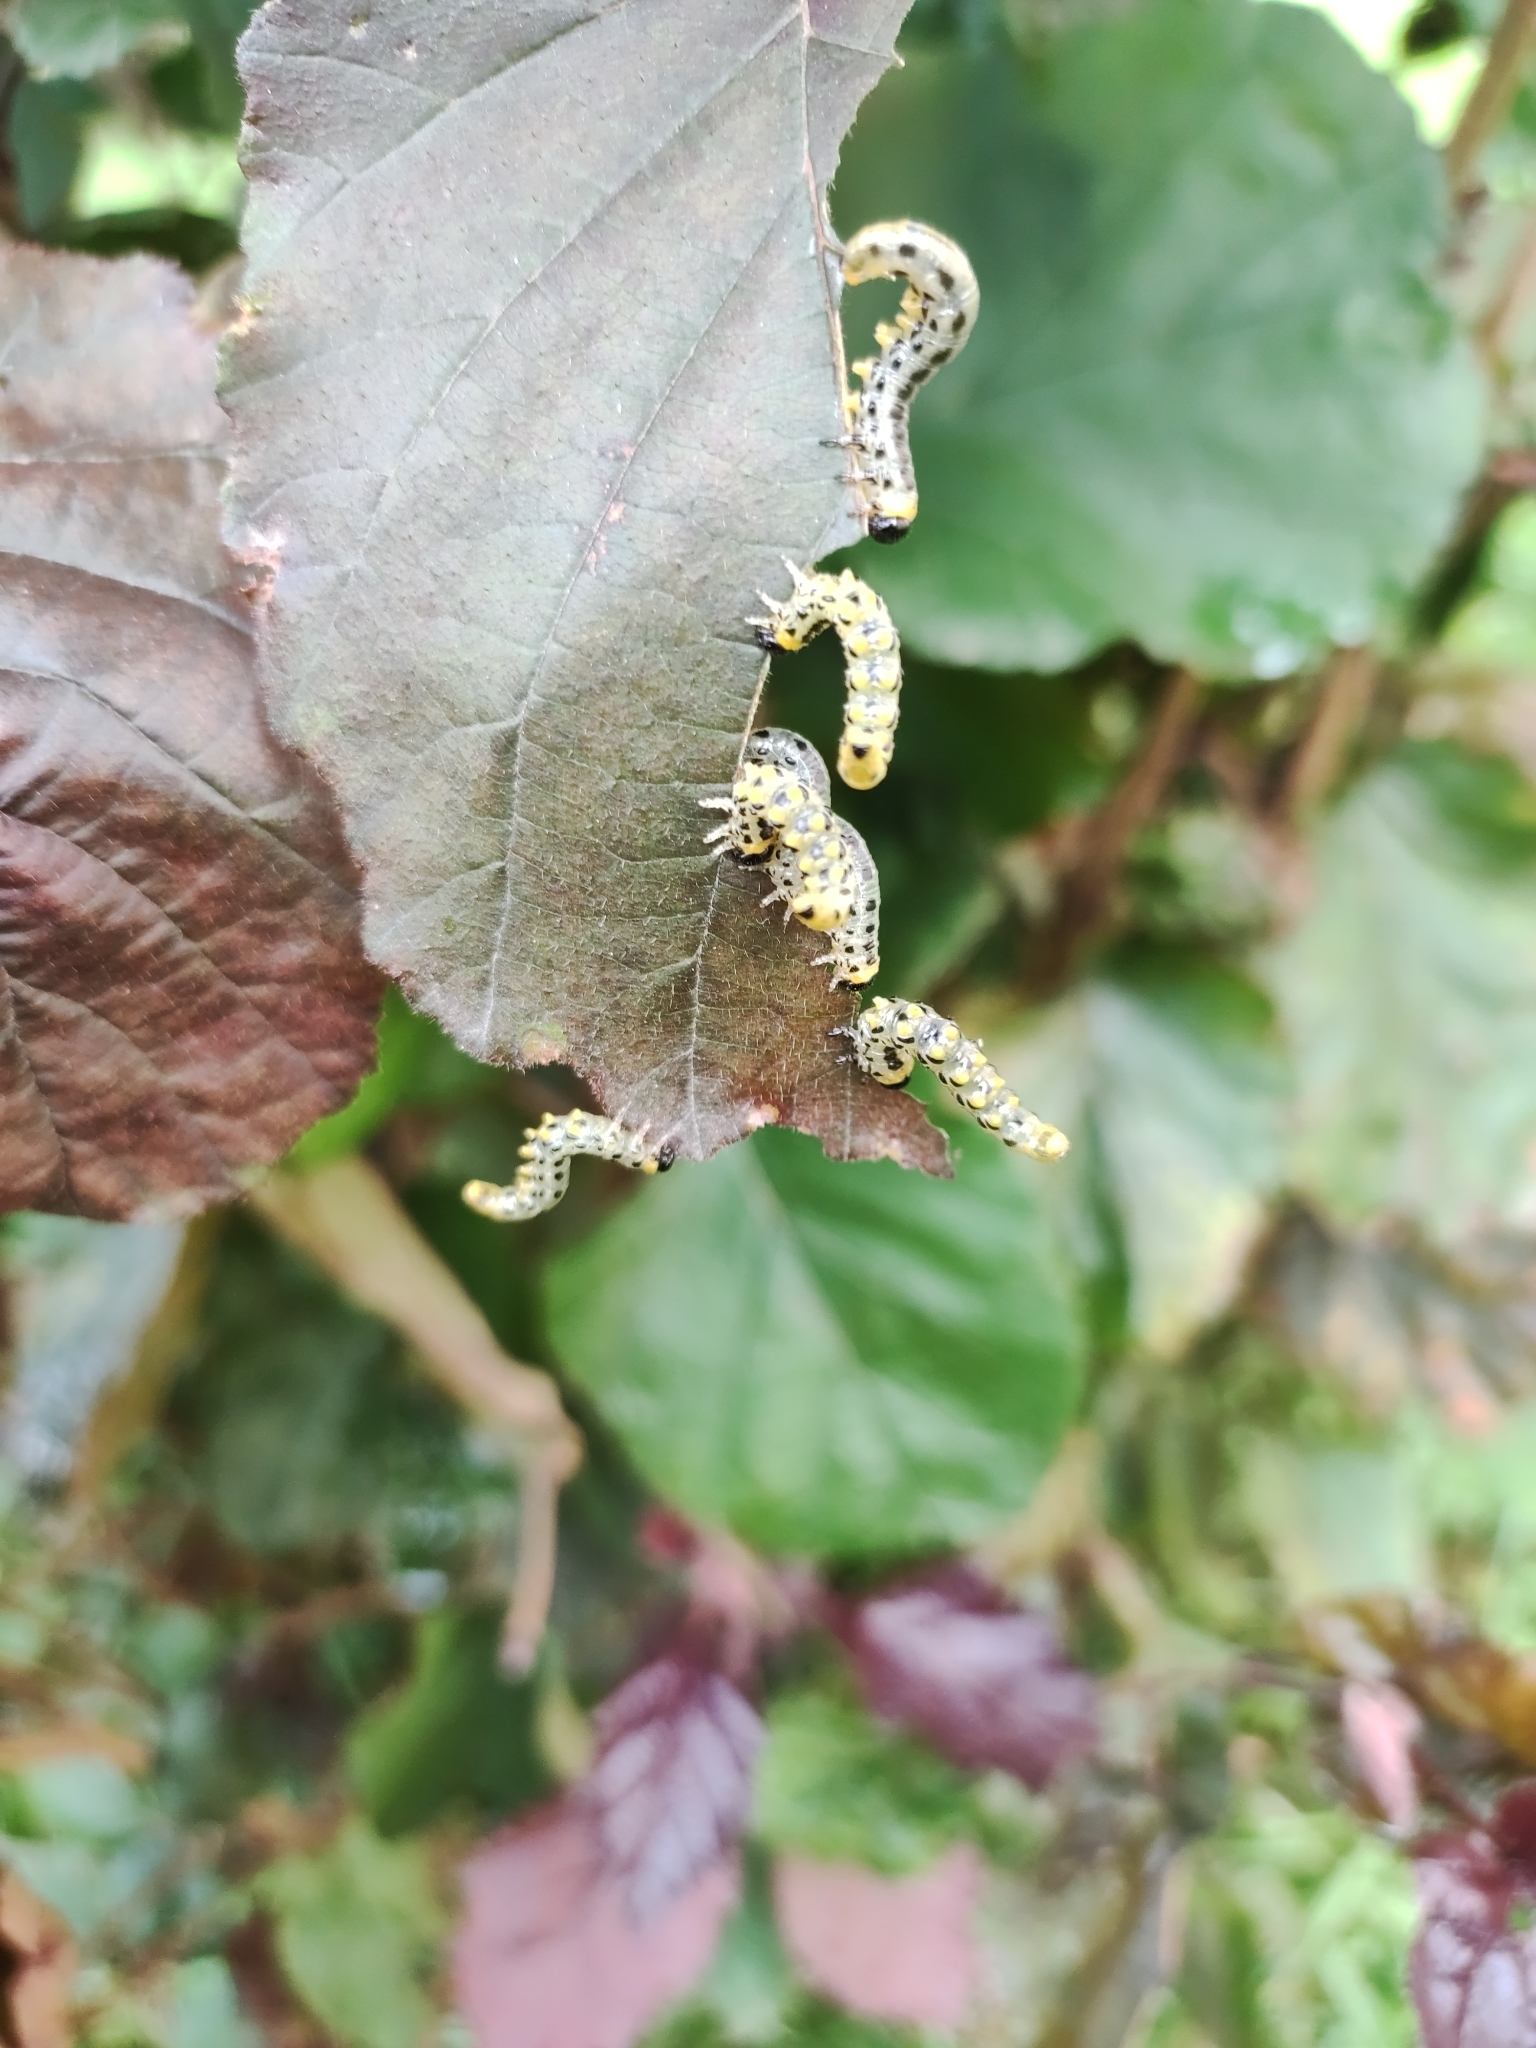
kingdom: Animalia
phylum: Arthropoda
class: Insecta
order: Hymenoptera
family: Tenthredinidae
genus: Craesus
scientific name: Craesus septentrionalis
